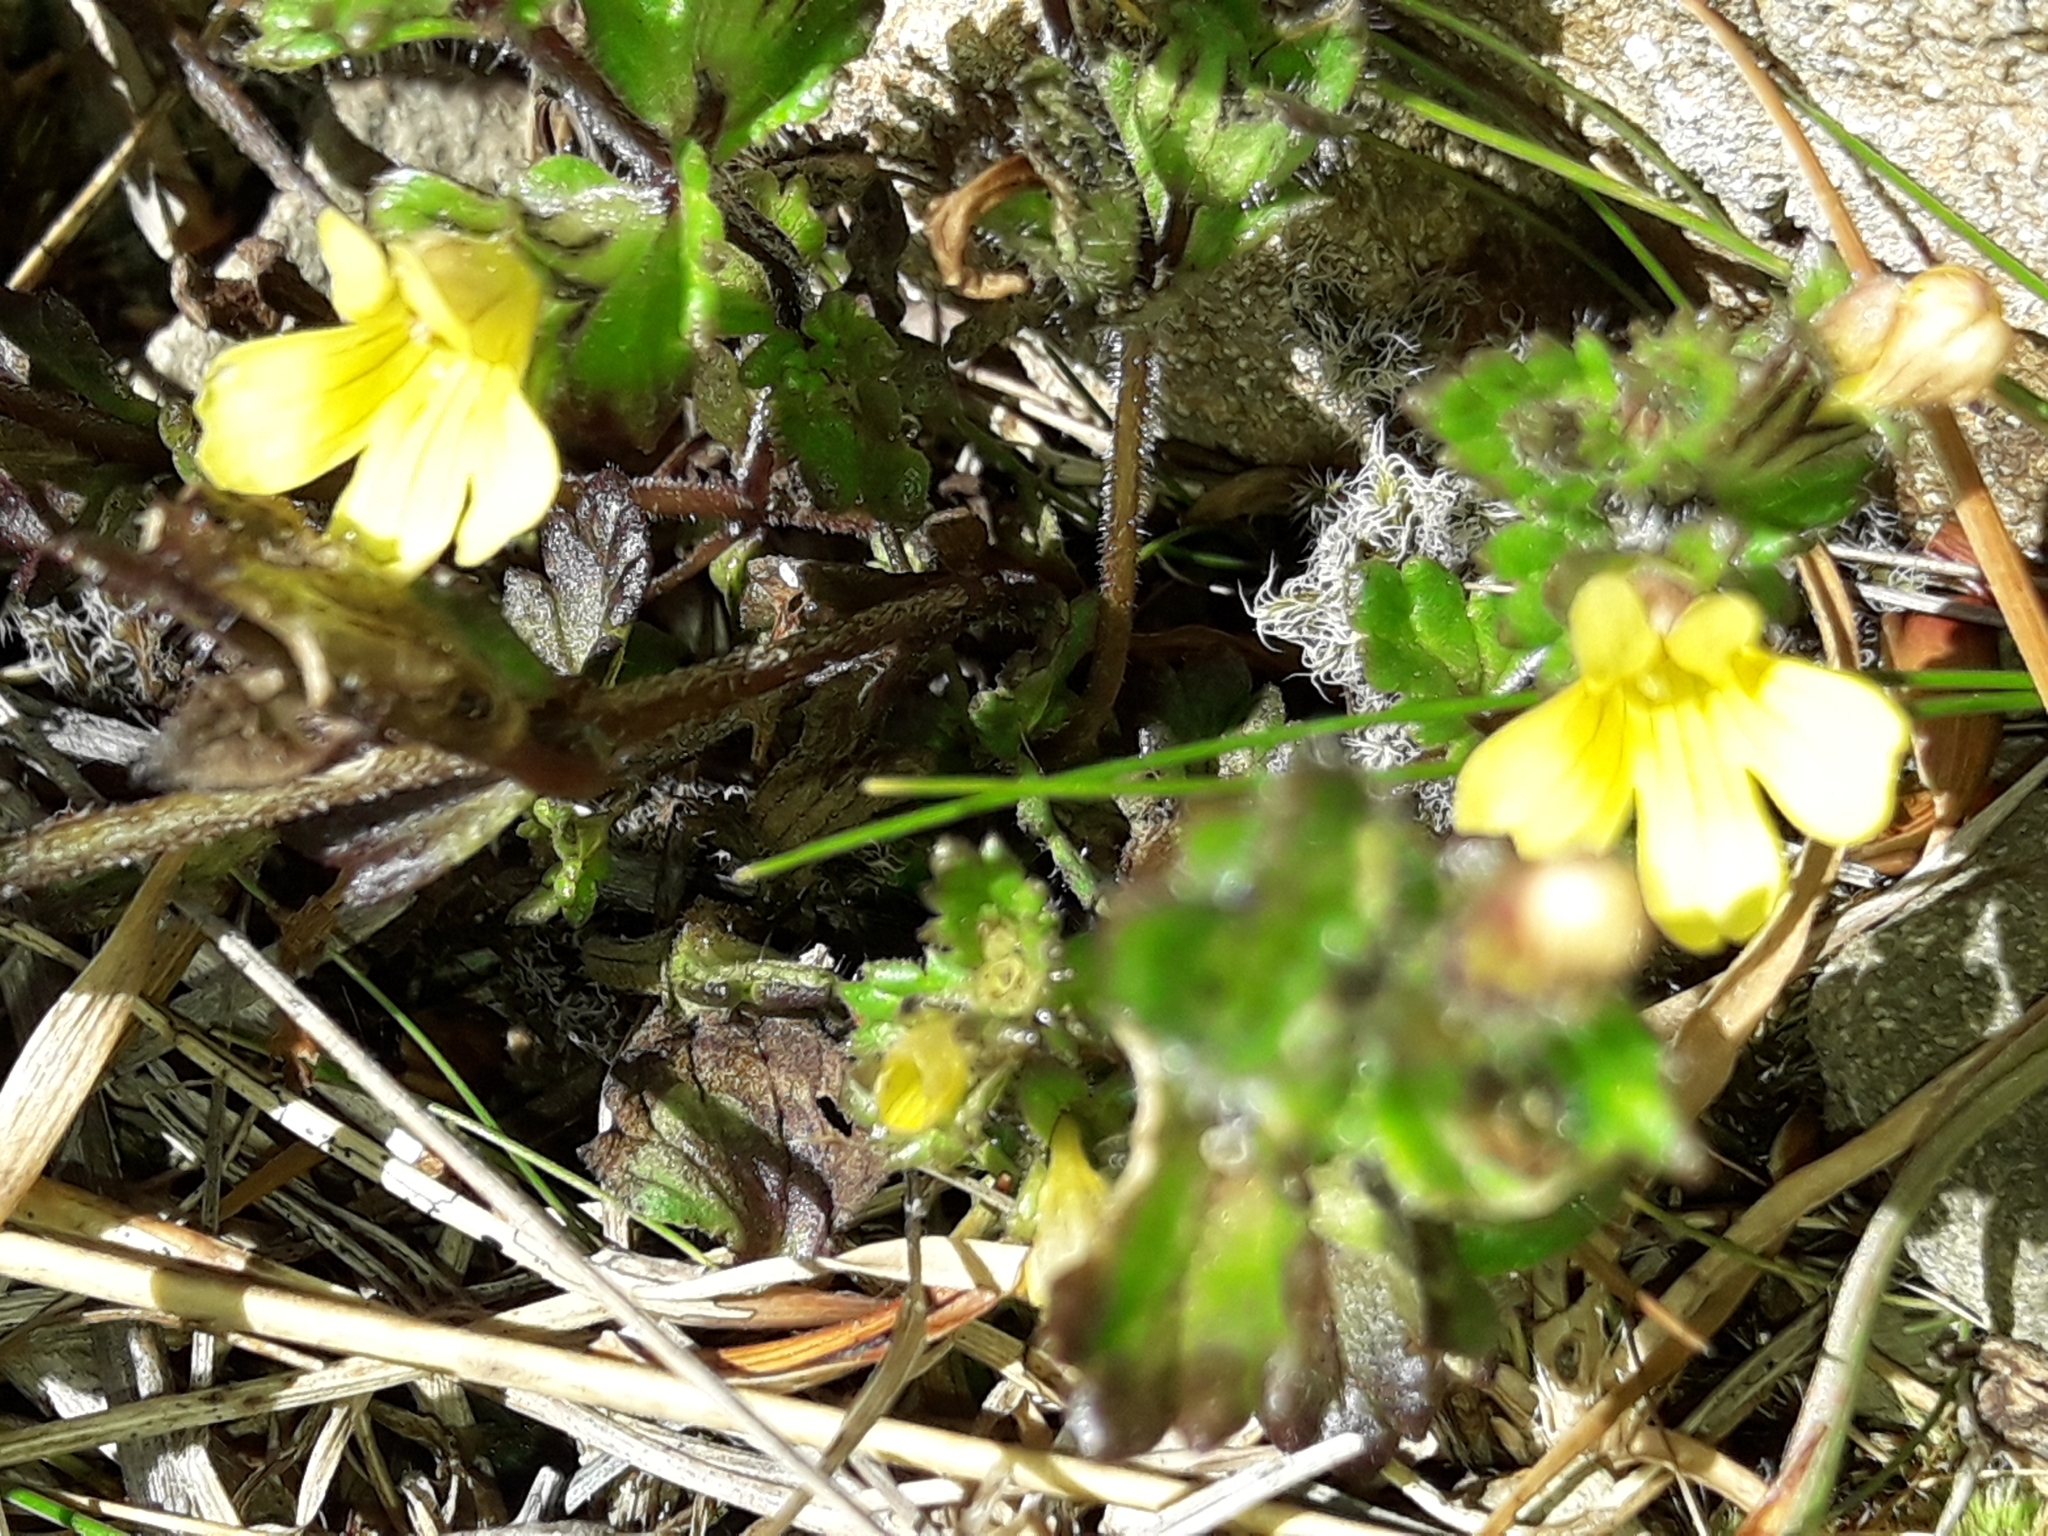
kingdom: Plantae
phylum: Tracheophyta
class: Magnoliopsida
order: Lamiales
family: Orobanchaceae
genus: Euphrasia
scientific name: Euphrasia cockayneana
